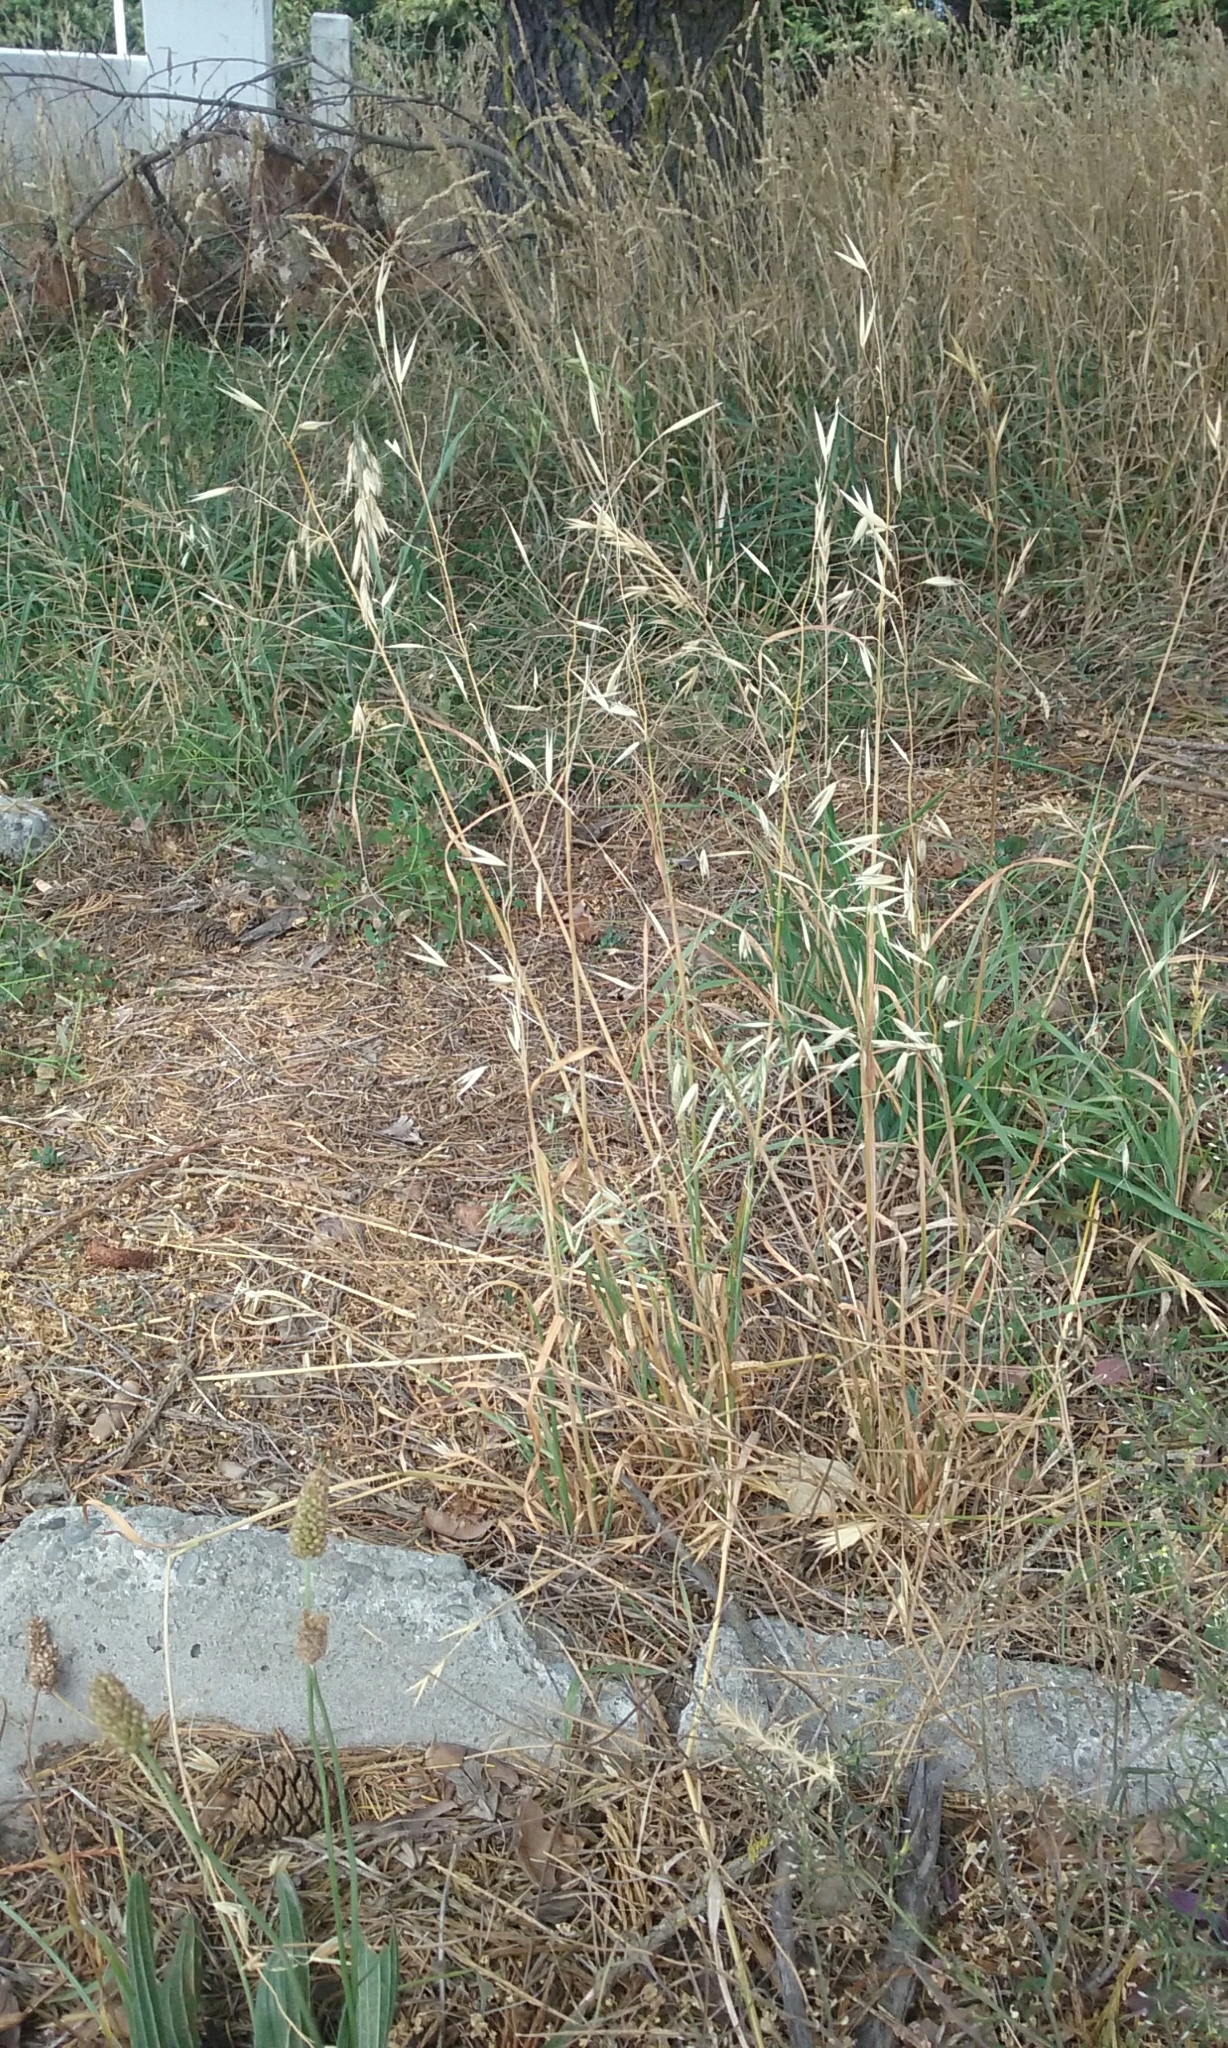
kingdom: Plantae
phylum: Tracheophyta
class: Liliopsida
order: Poales
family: Poaceae
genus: Avena
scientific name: Avena sativa
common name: Oat
